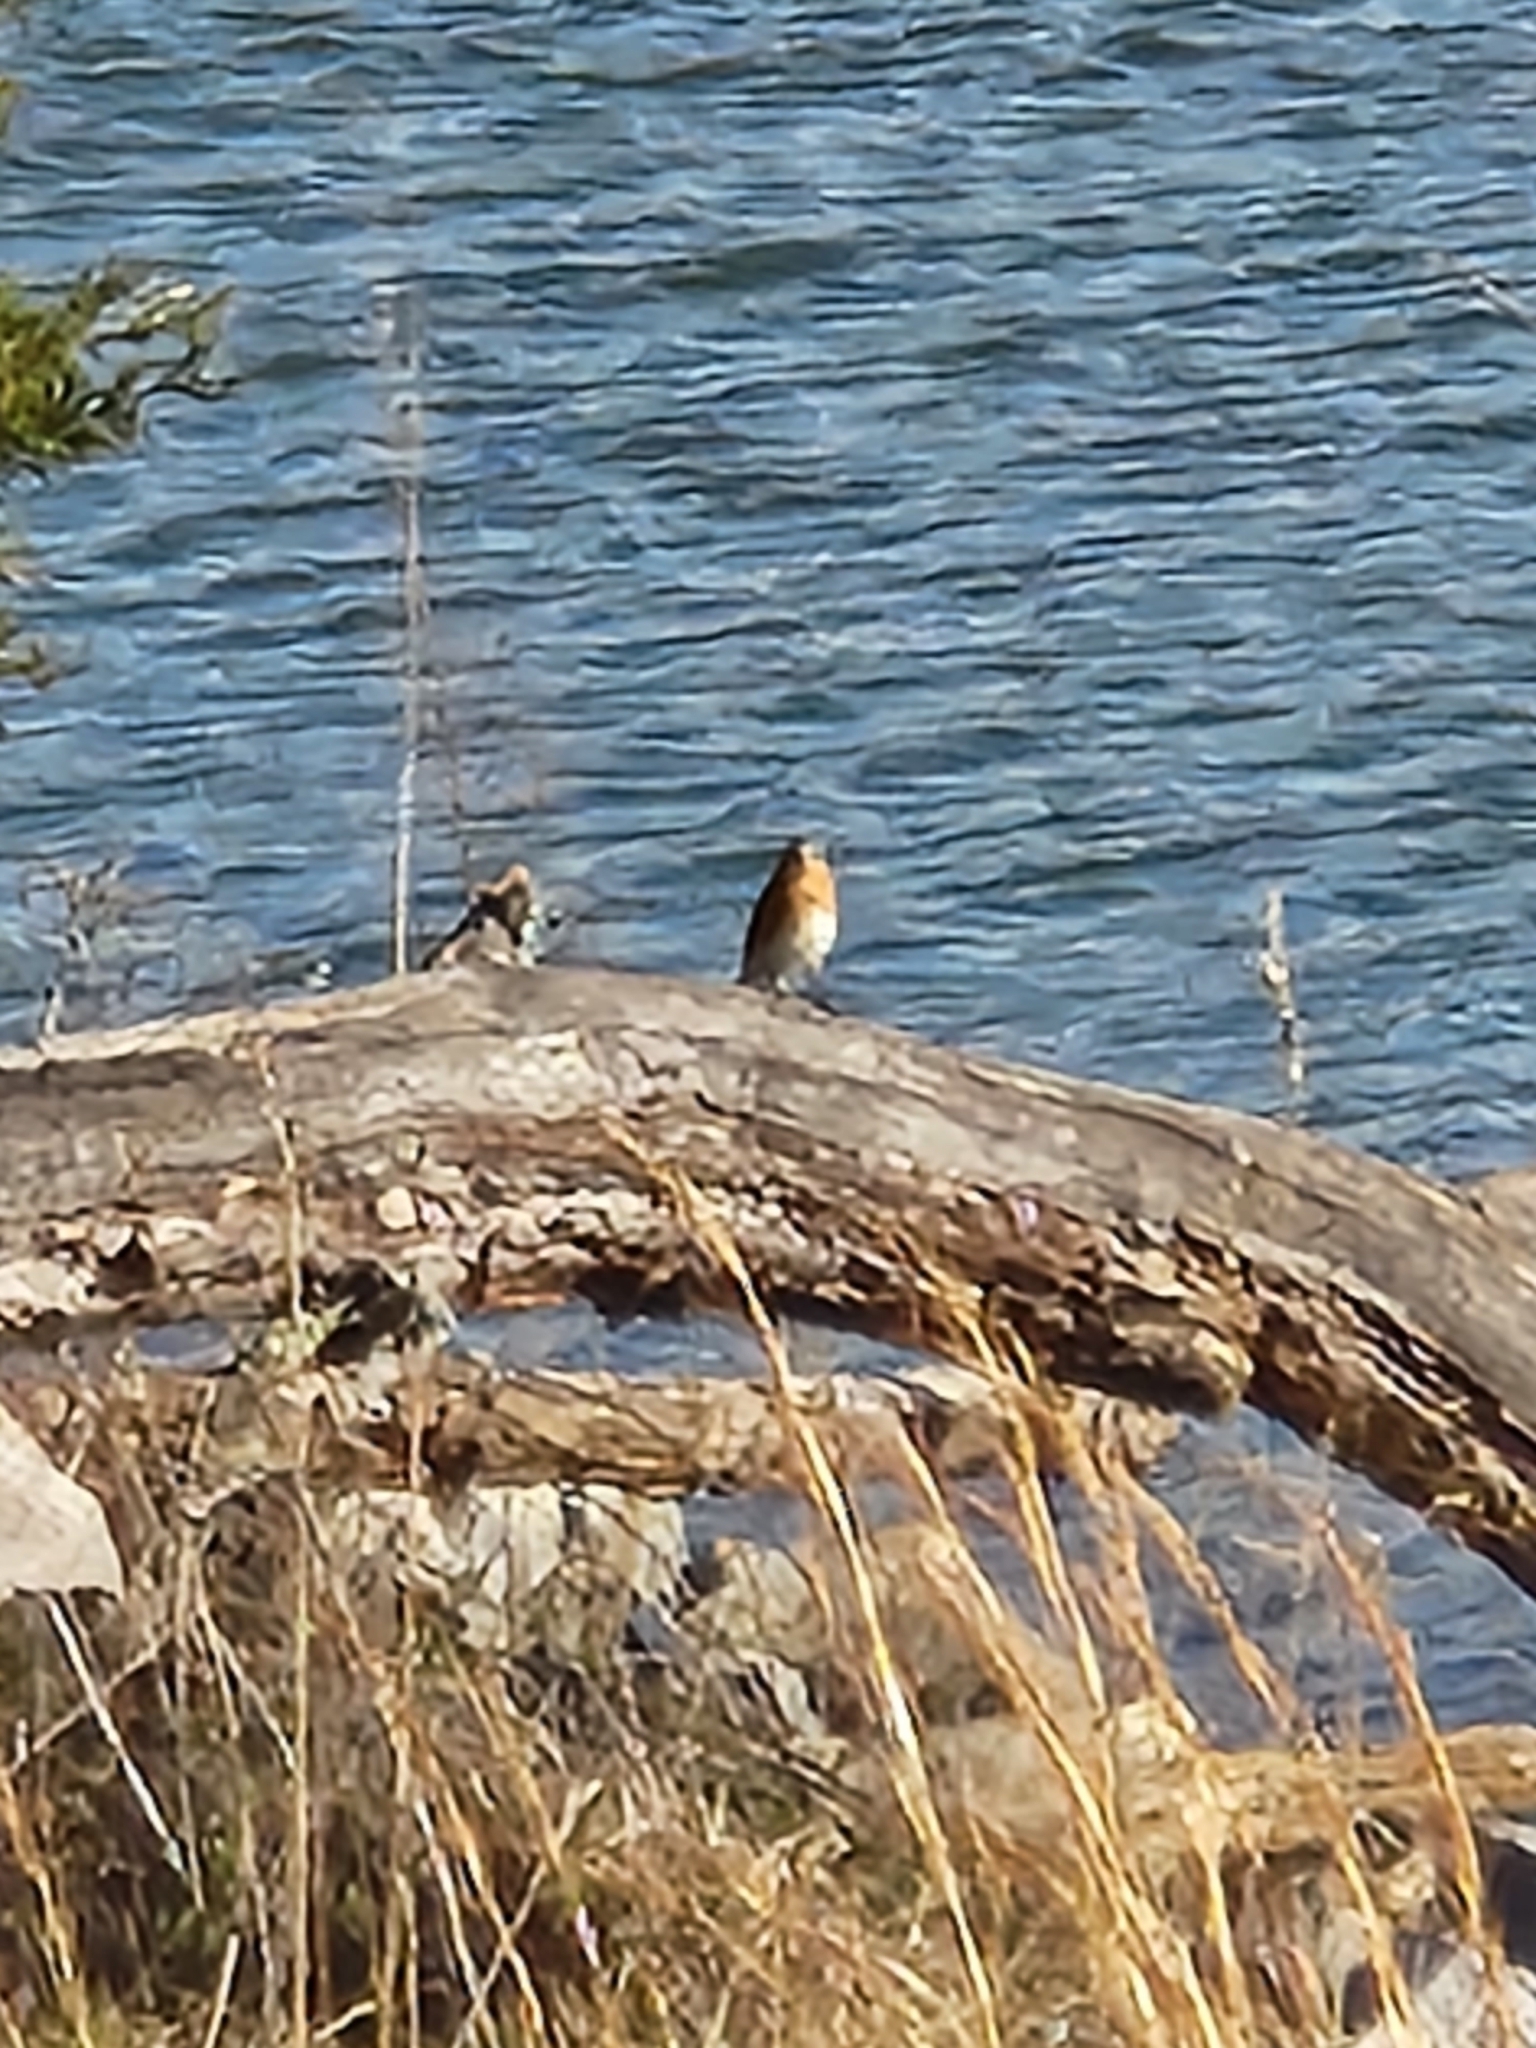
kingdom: Animalia
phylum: Chordata
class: Aves
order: Passeriformes
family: Turdidae
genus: Sialia
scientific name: Sialia sialis
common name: Eastern bluebird
